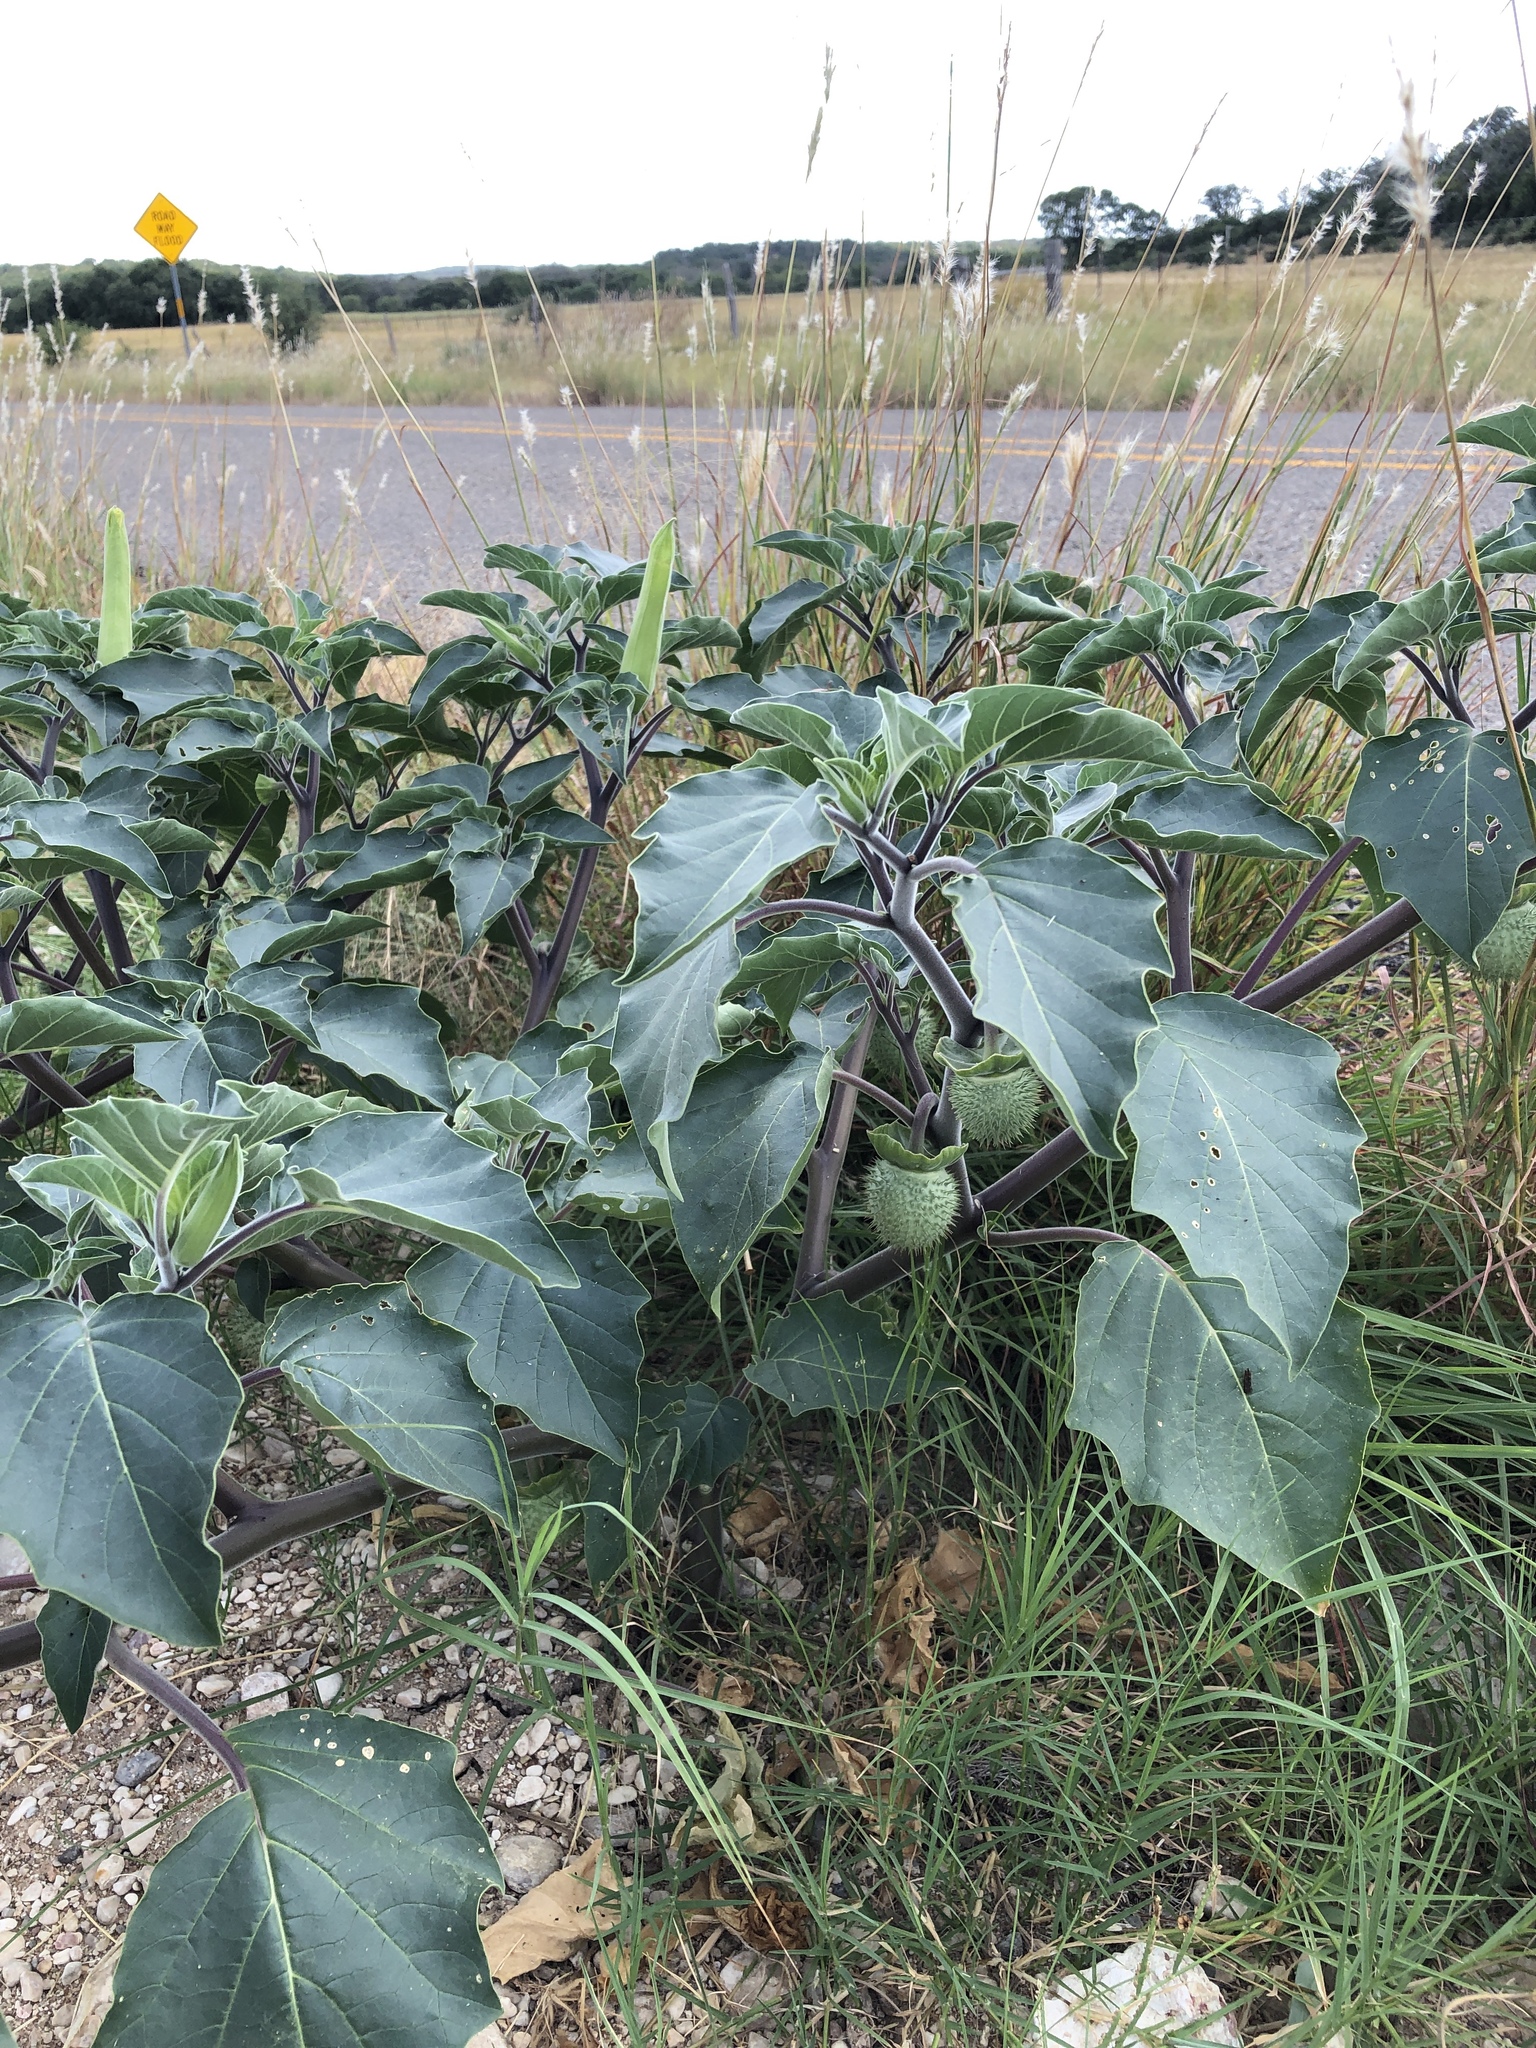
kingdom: Plantae
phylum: Tracheophyta
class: Magnoliopsida
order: Solanales
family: Solanaceae
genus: Datura
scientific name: Datura wrightii
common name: Sacred thorn-apple
